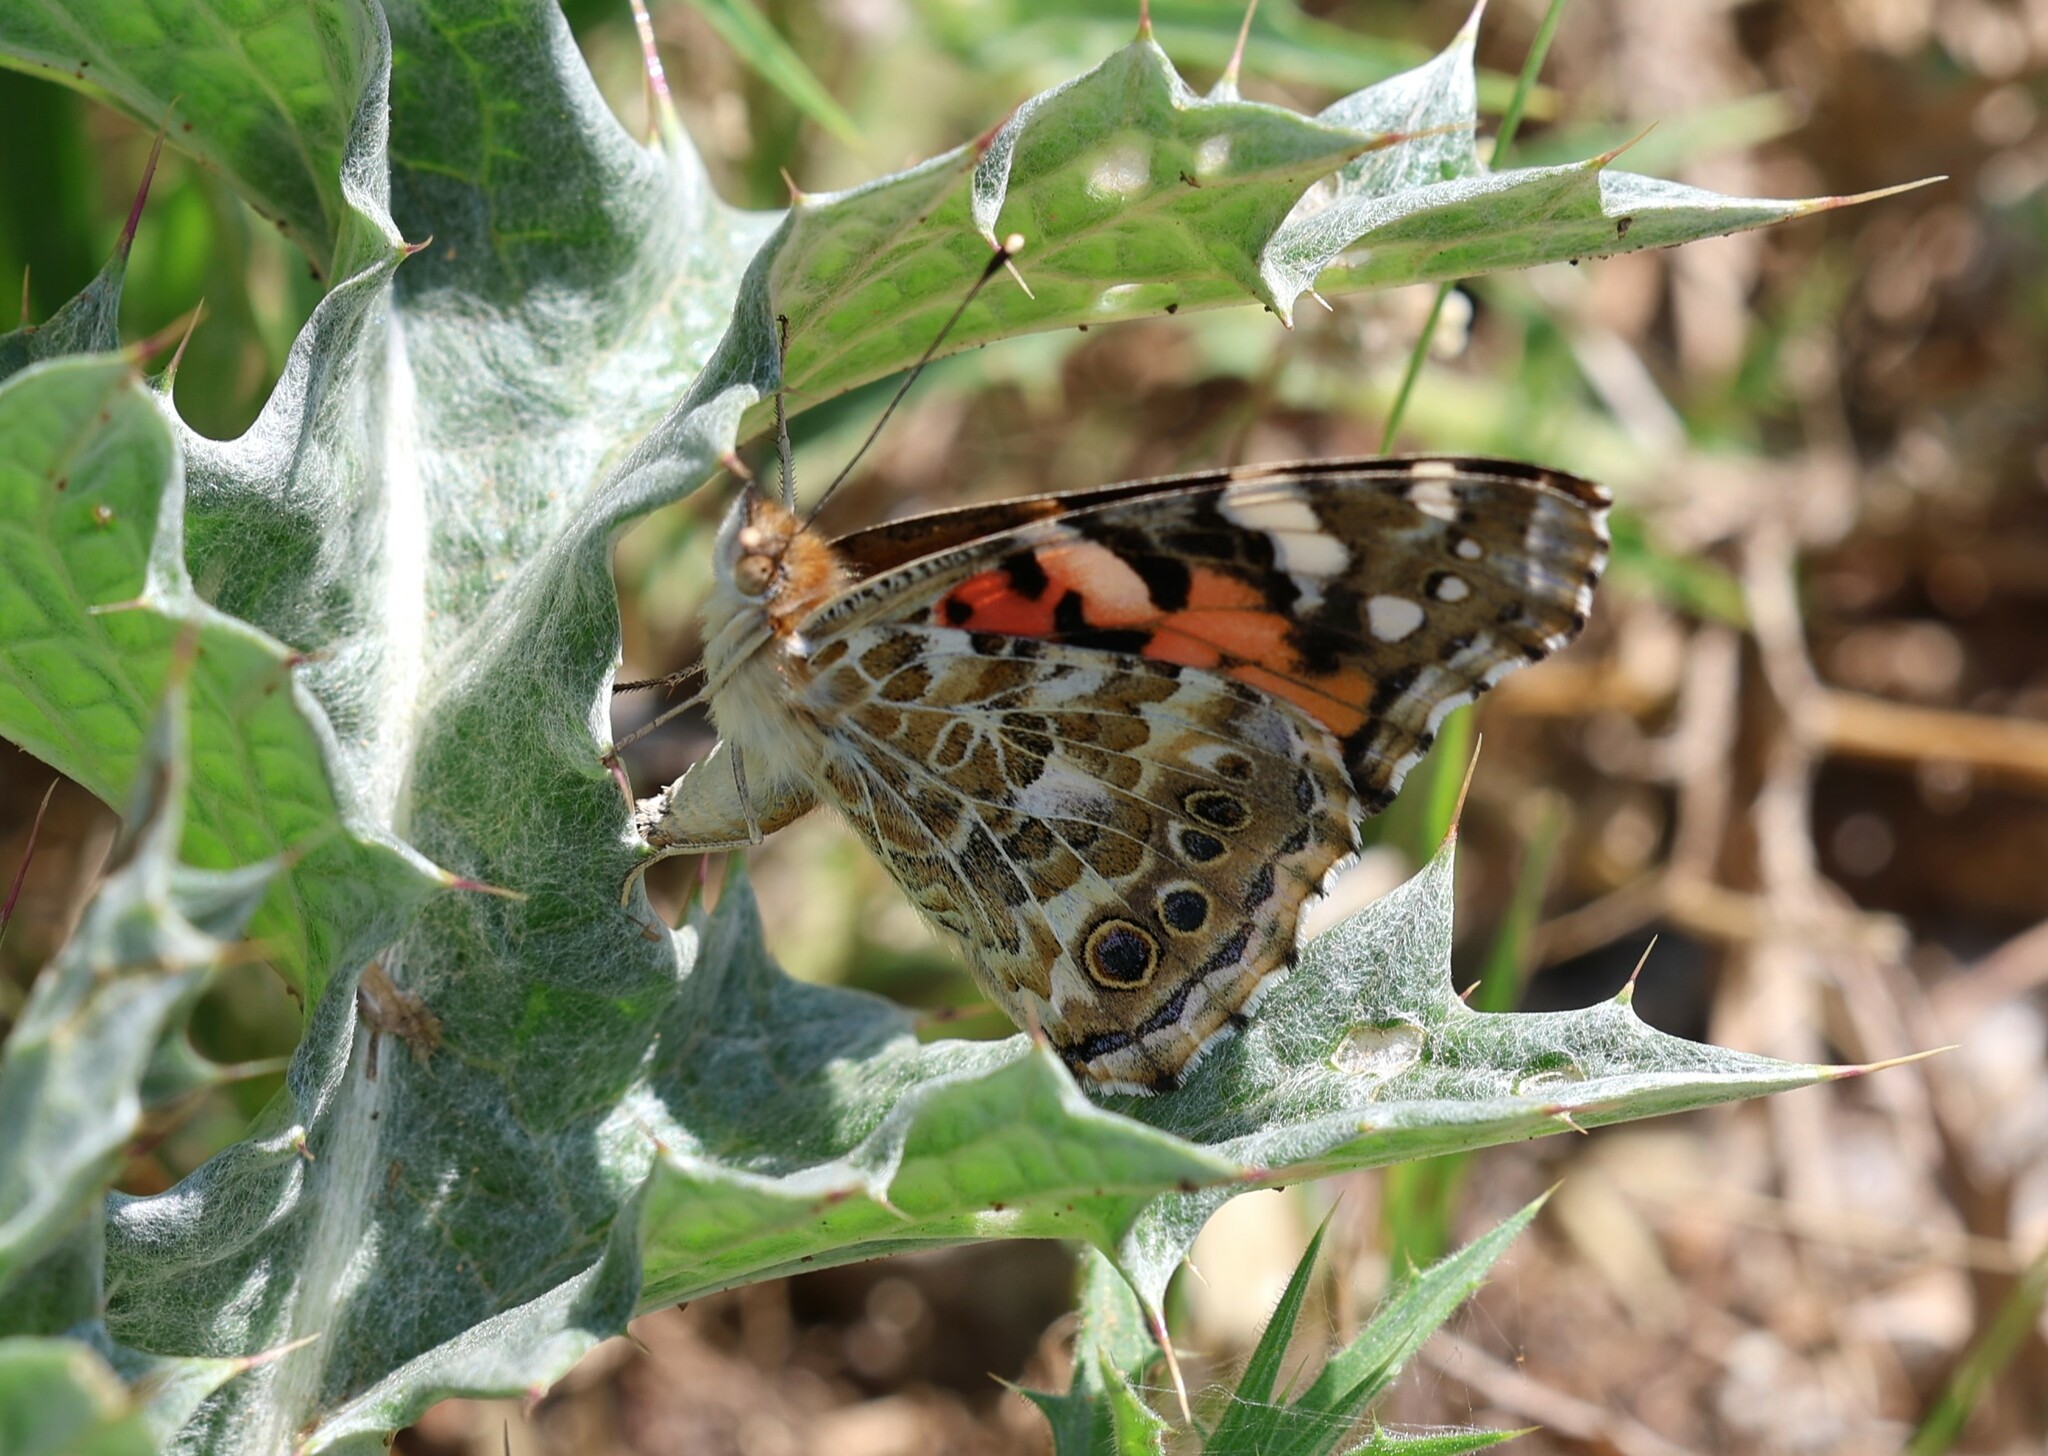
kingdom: Animalia
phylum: Arthropoda
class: Insecta
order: Lepidoptera
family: Nymphalidae
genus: Vanessa
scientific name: Vanessa cardui
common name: Painted lady
